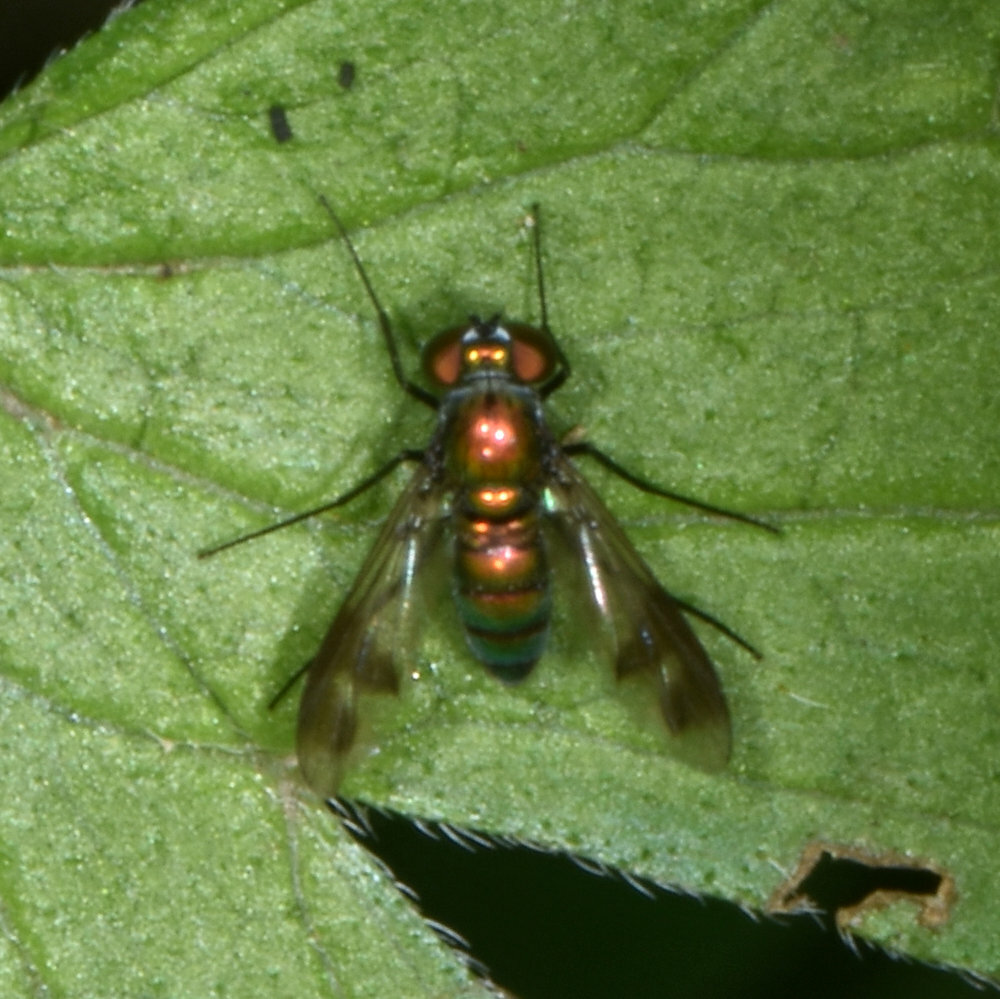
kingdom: Animalia
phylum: Arthropoda
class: Insecta
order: Diptera
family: Dolichopodidae
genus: Condylostylus
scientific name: Condylostylus patibulatus
